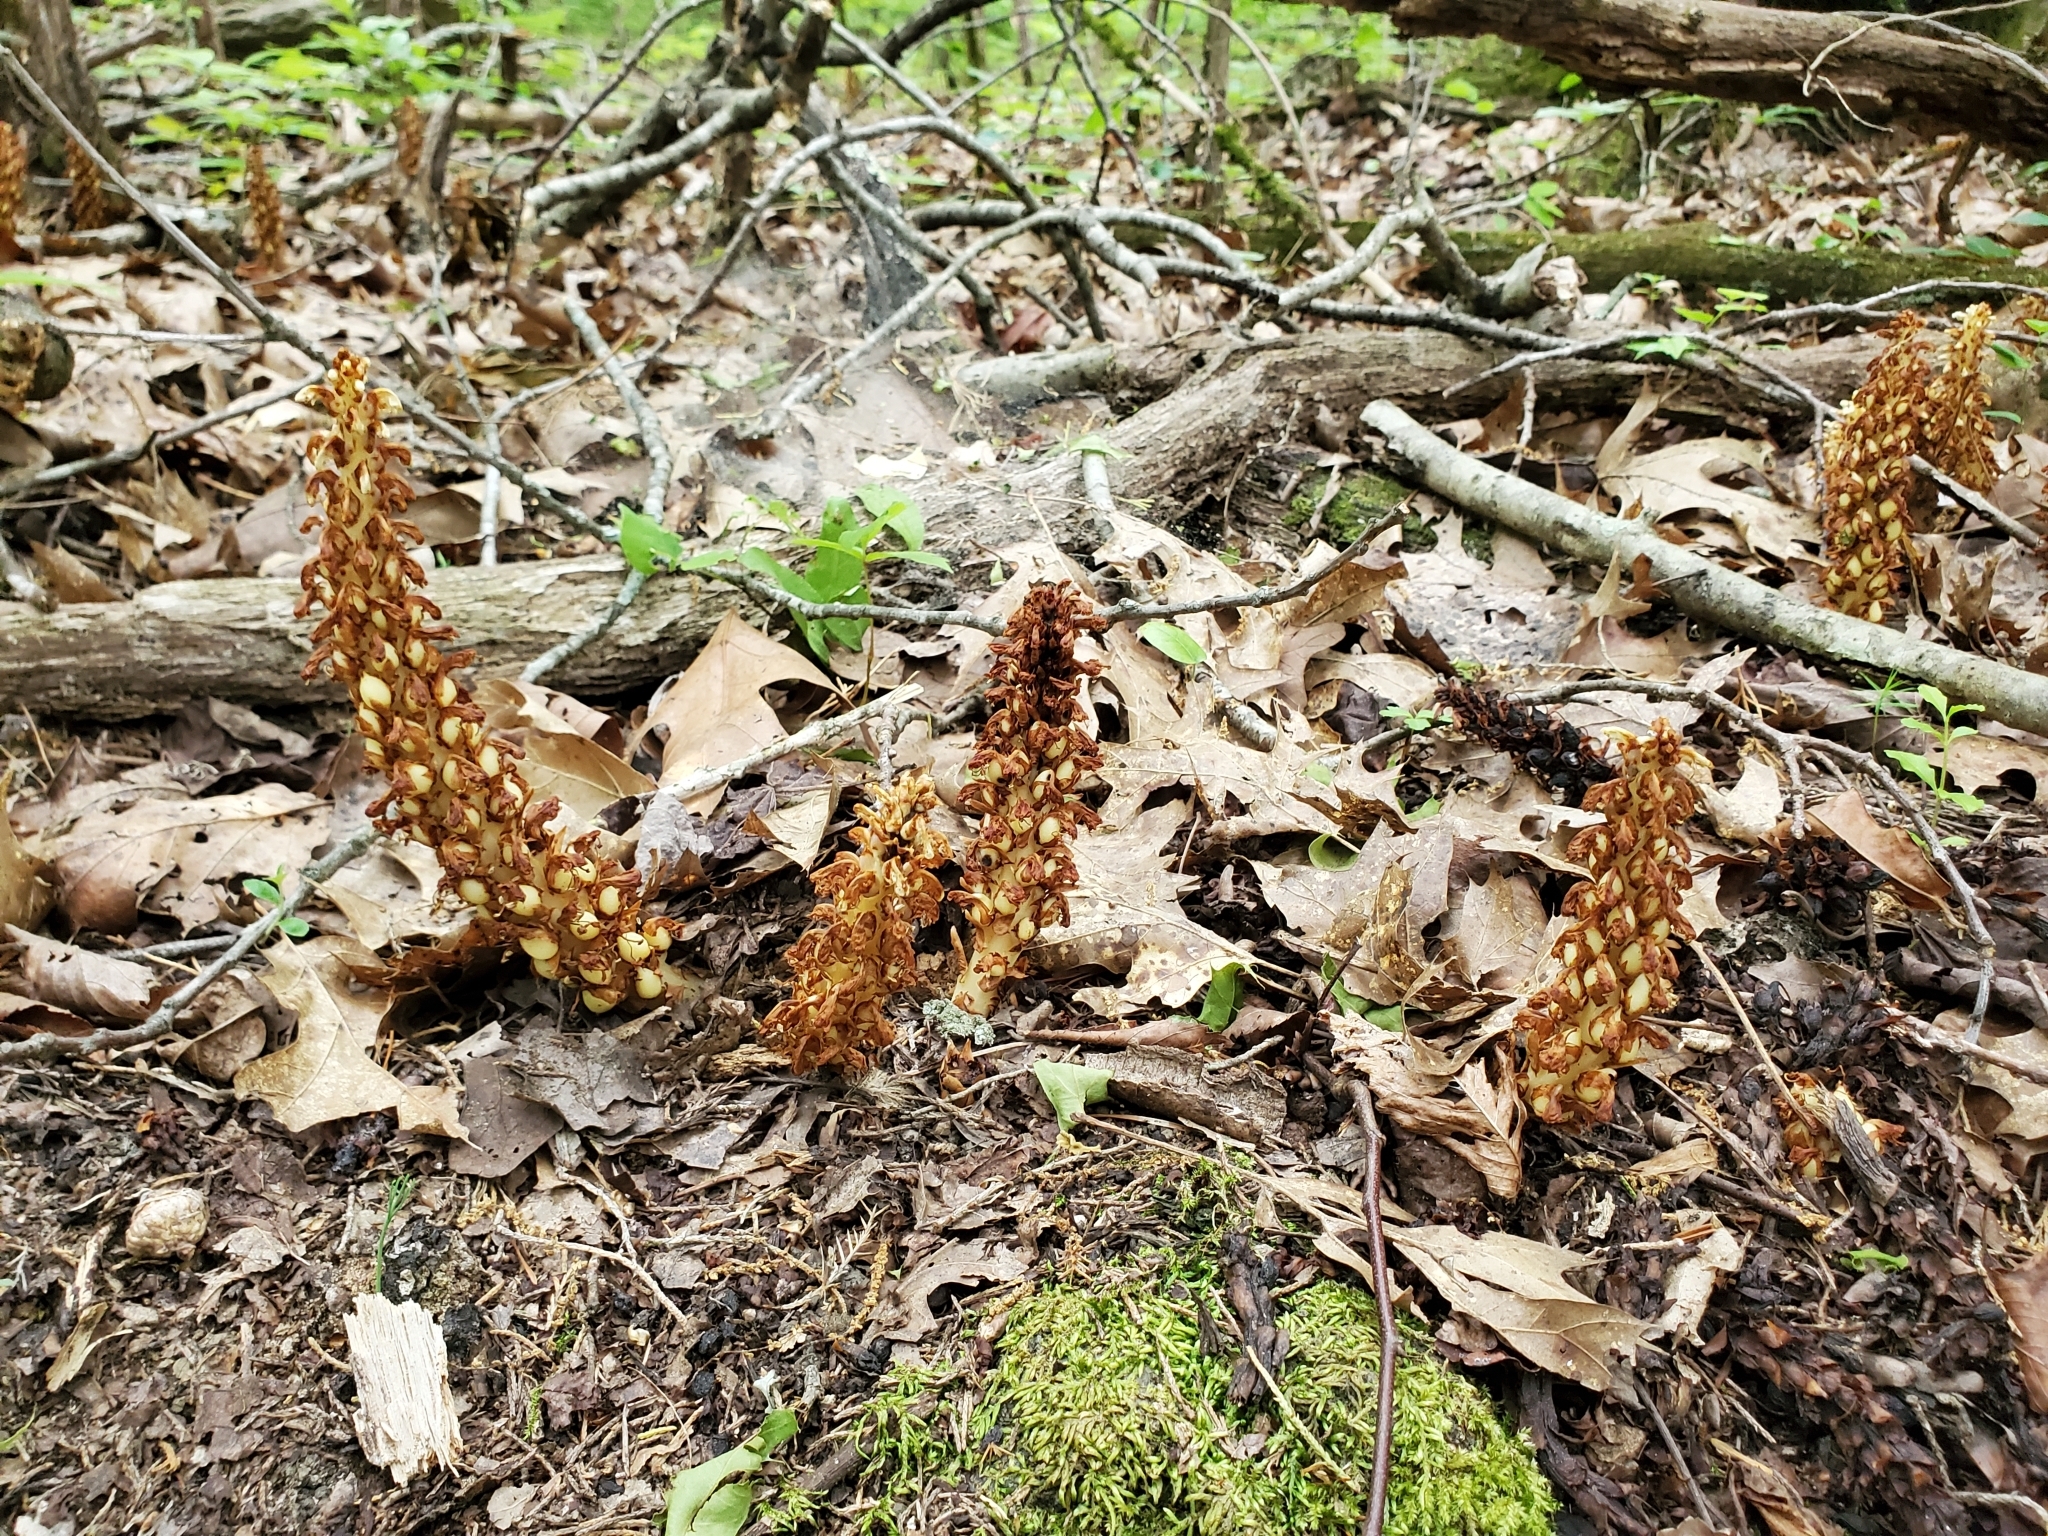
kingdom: Plantae
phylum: Tracheophyta
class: Magnoliopsida
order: Lamiales
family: Orobanchaceae
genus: Conopholis
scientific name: Conopholis americana
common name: American cancer-root
